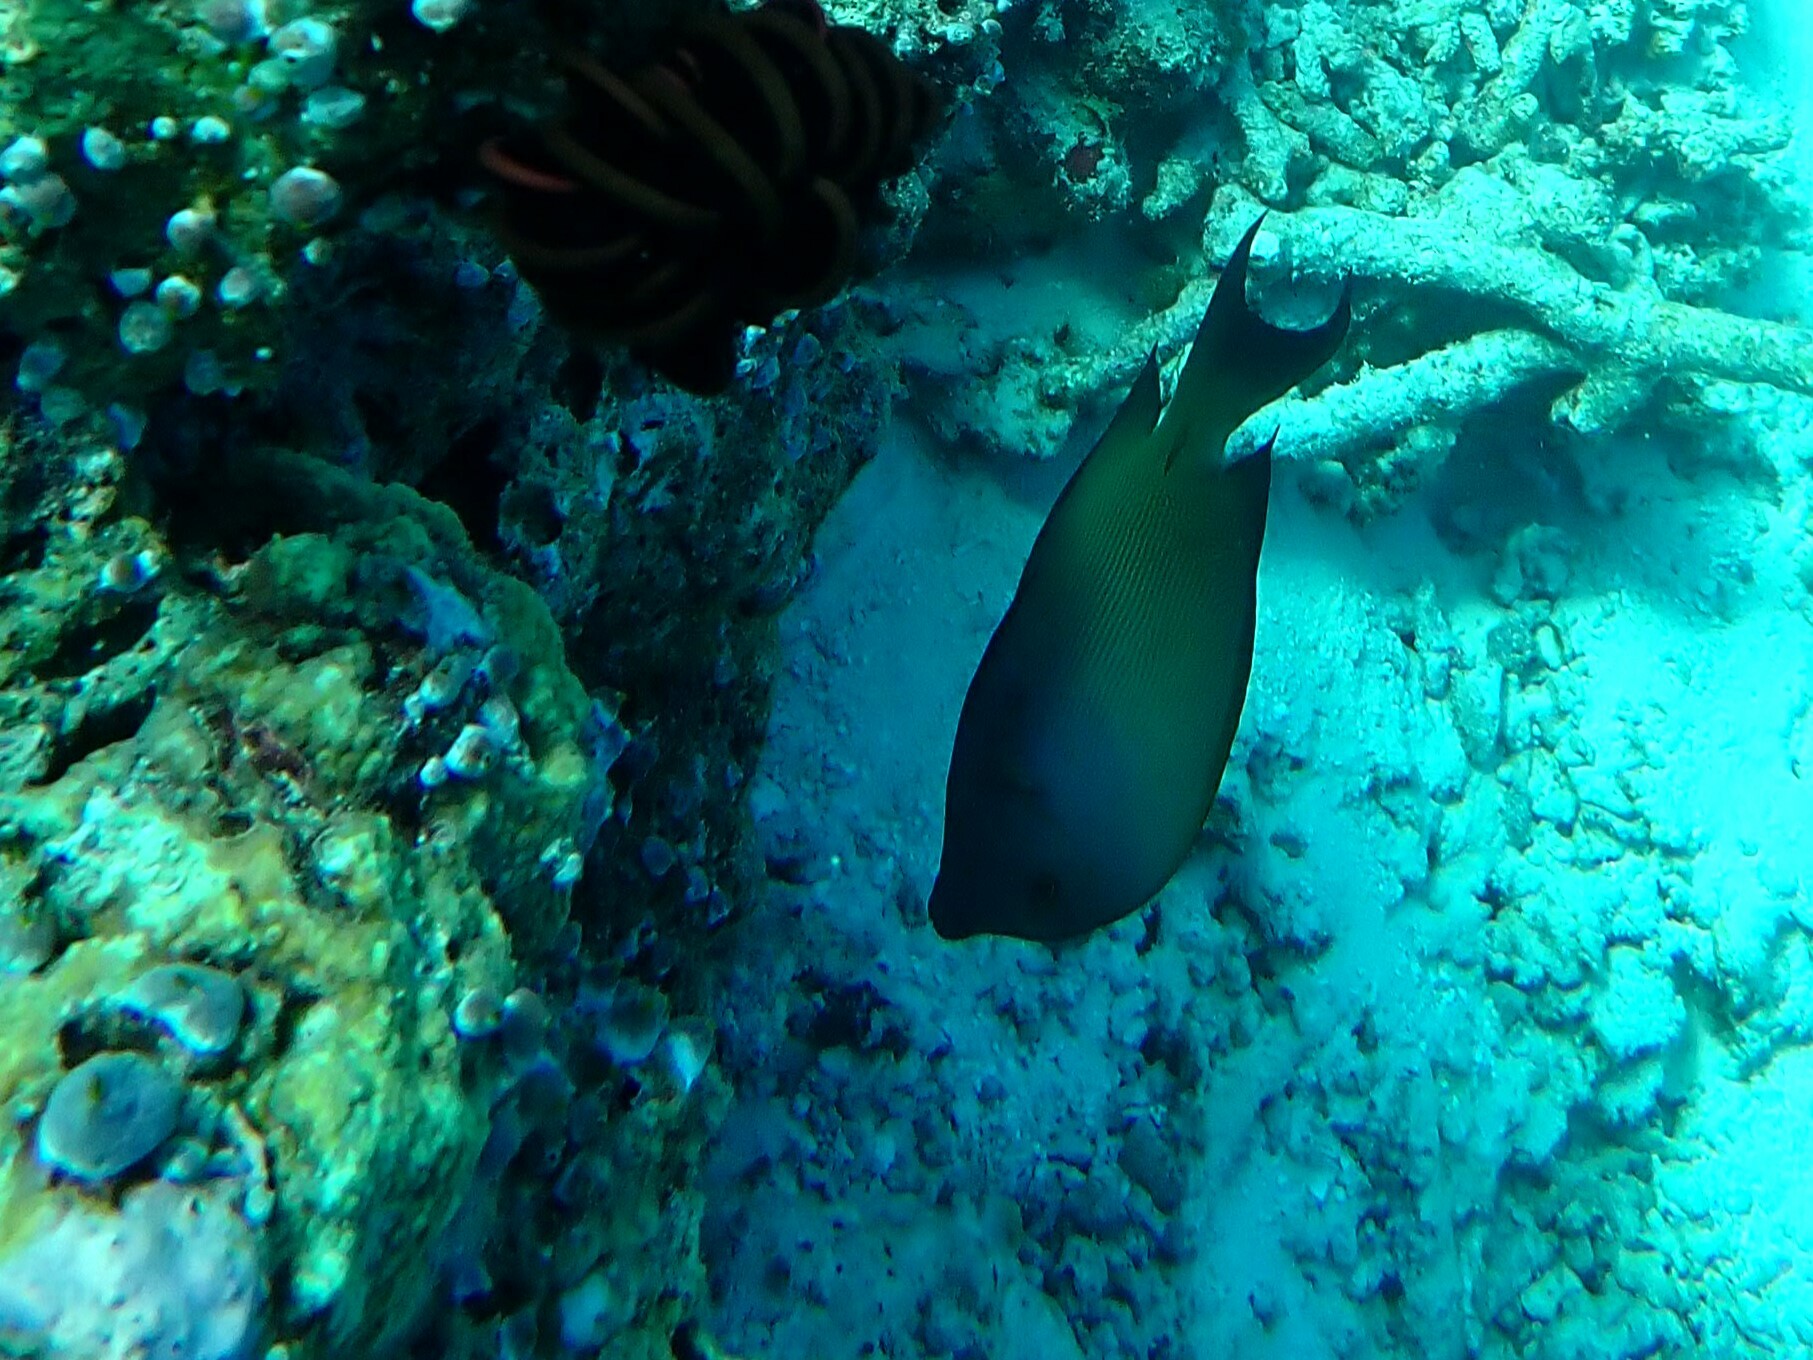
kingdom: Animalia
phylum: Chordata
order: Perciformes
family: Acanthuridae
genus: Ctenochaetus
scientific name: Ctenochaetus striatus
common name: Bristle-toothed surgeonfish
